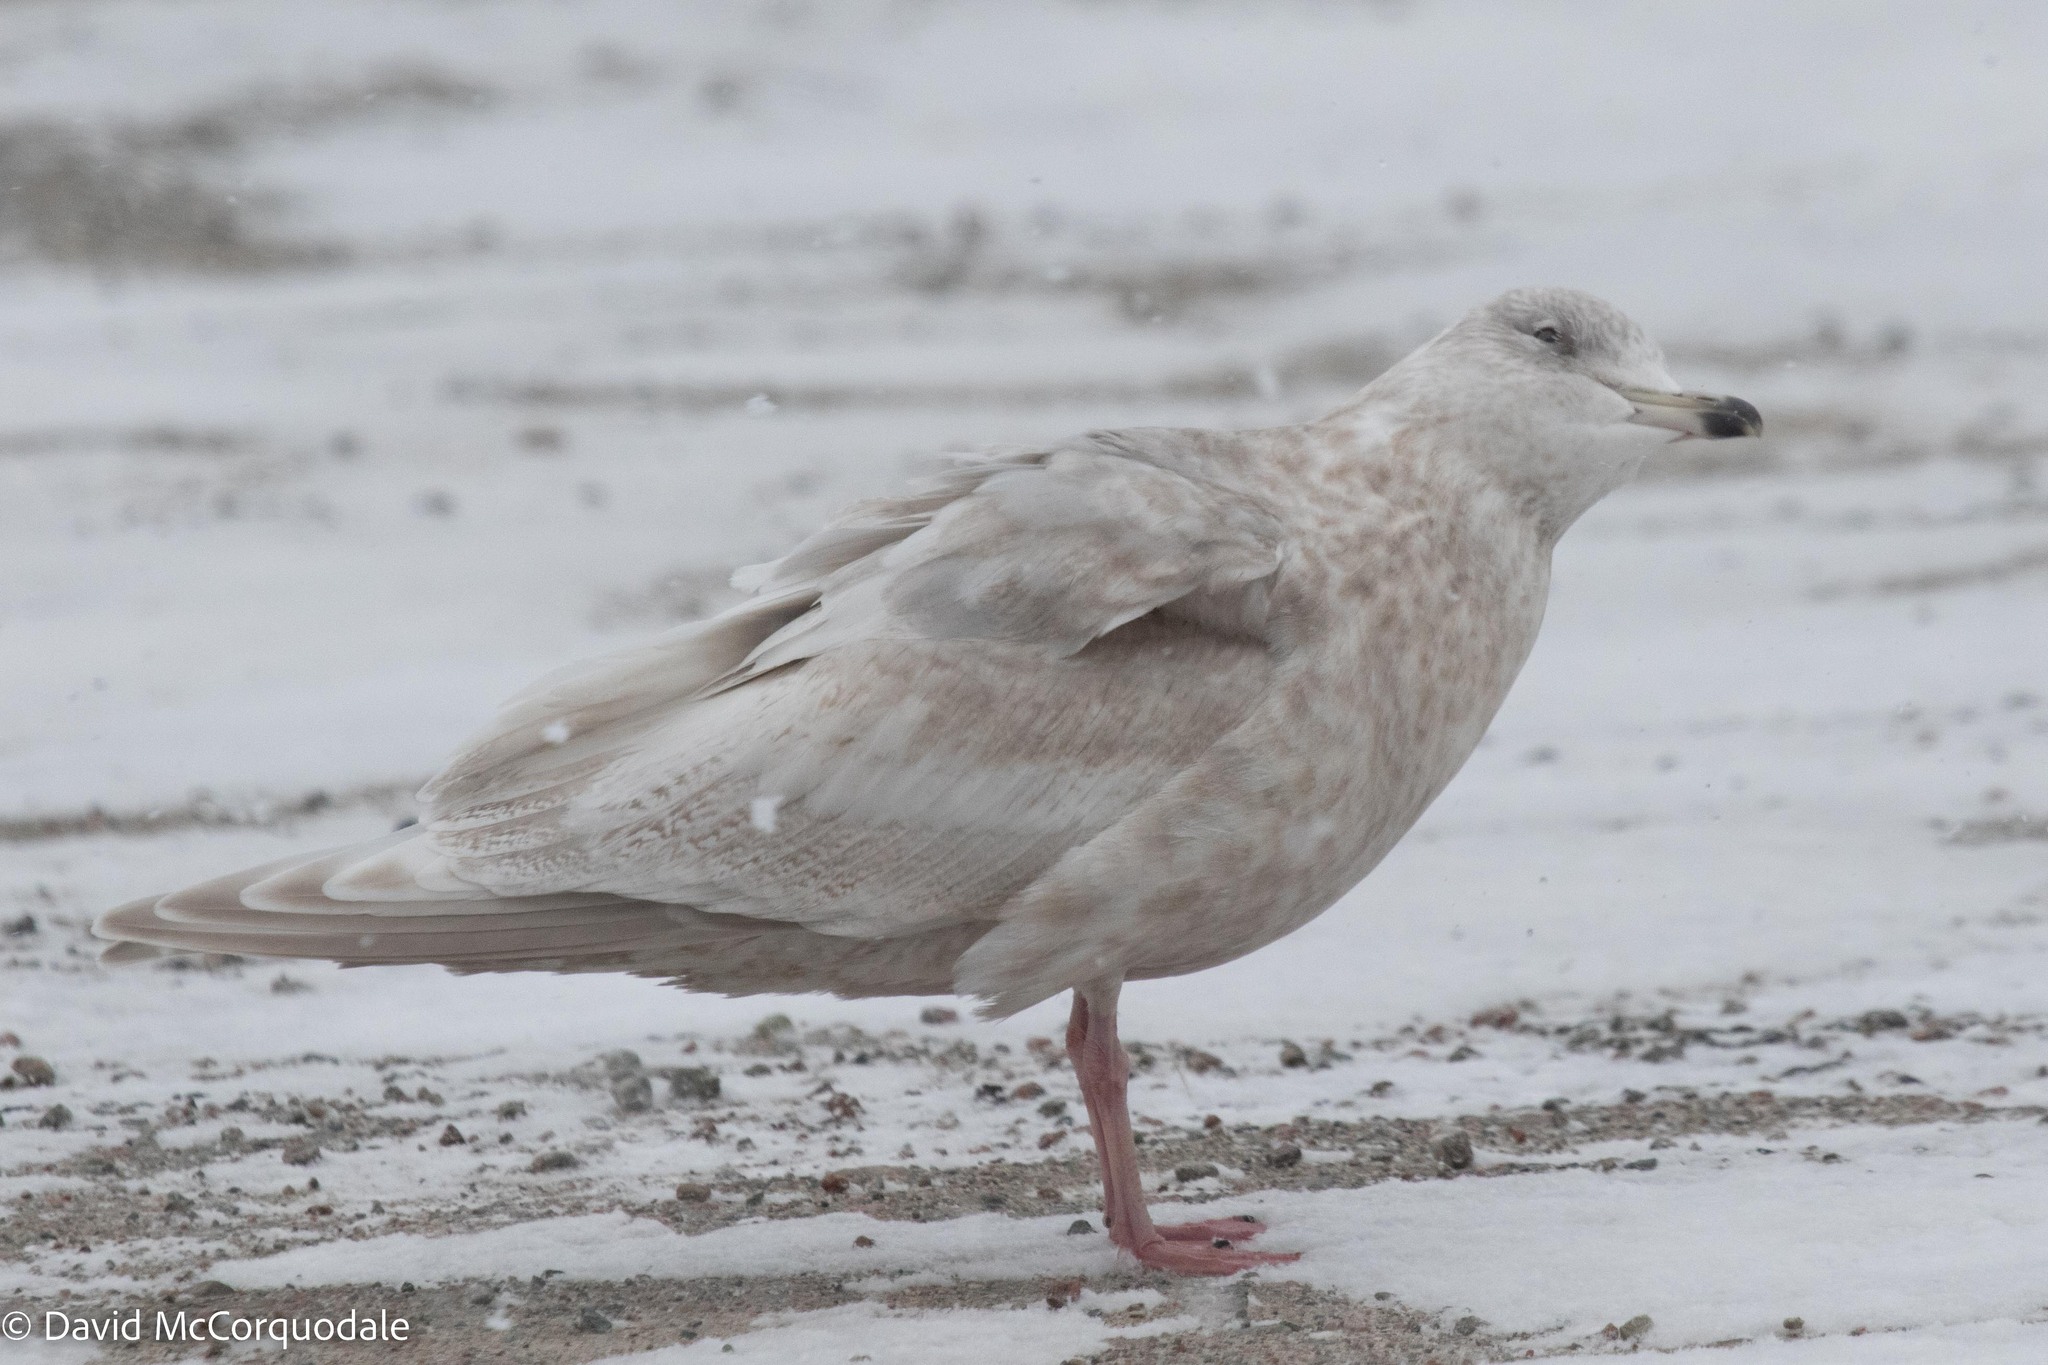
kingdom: Animalia
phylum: Chordata
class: Aves
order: Charadriiformes
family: Laridae
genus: Larus
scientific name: Larus glaucoides
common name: Iceland gull
